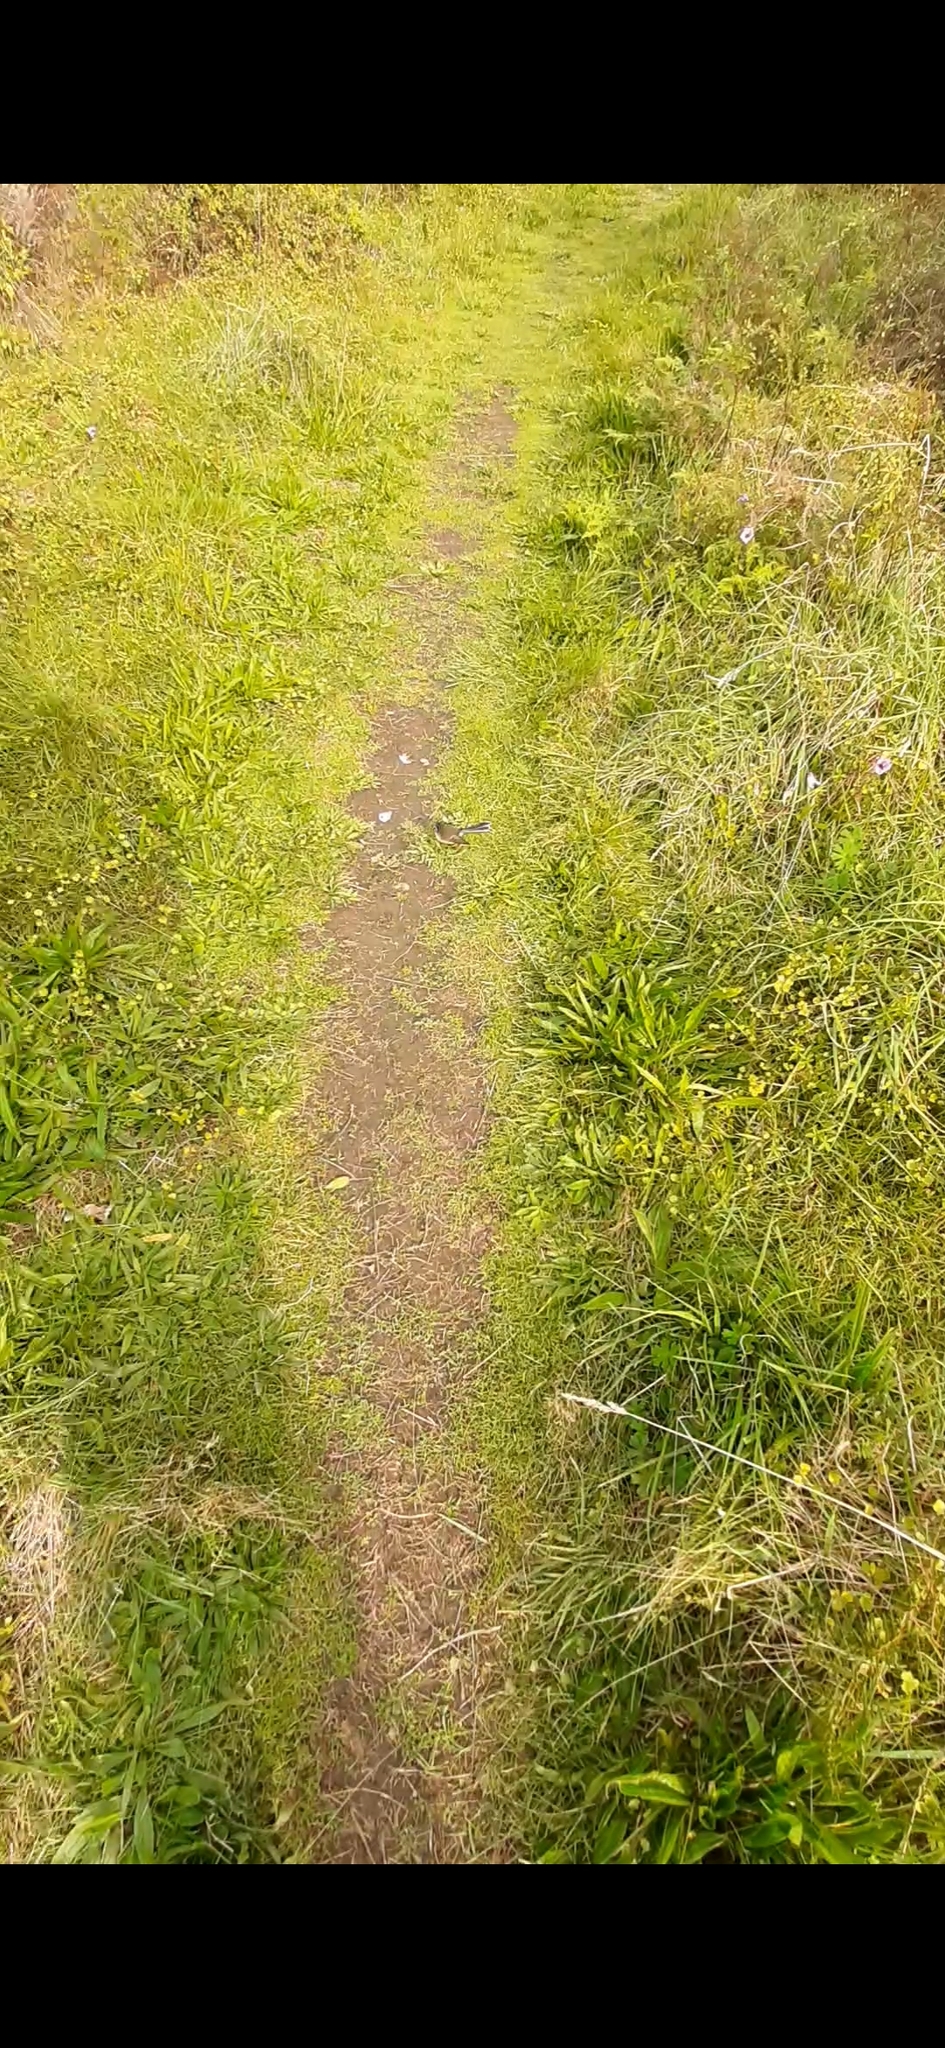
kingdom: Animalia
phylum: Chordata
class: Aves
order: Passeriformes
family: Rhipiduridae
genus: Rhipidura
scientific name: Rhipidura fuliginosa
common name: New zealand fantail
